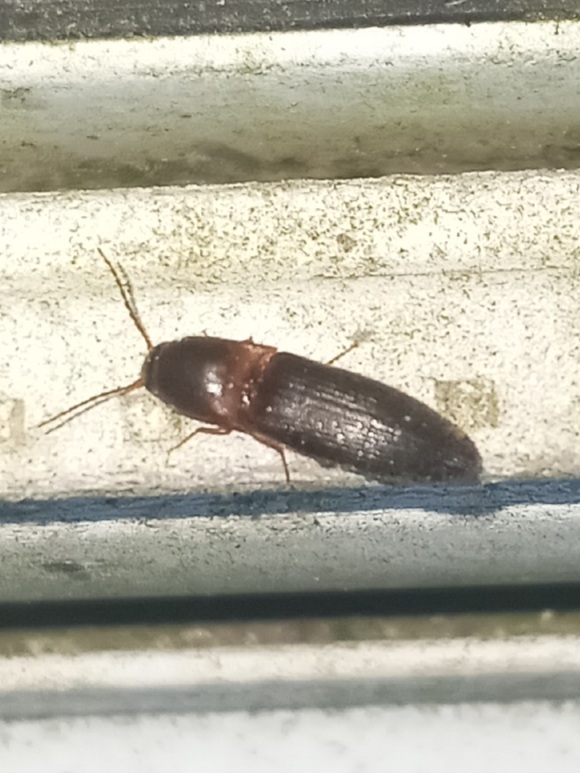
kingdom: Animalia
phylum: Arthropoda
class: Insecta
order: Coleoptera
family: Elateridae
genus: Megapenthes
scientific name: Megapenthes
